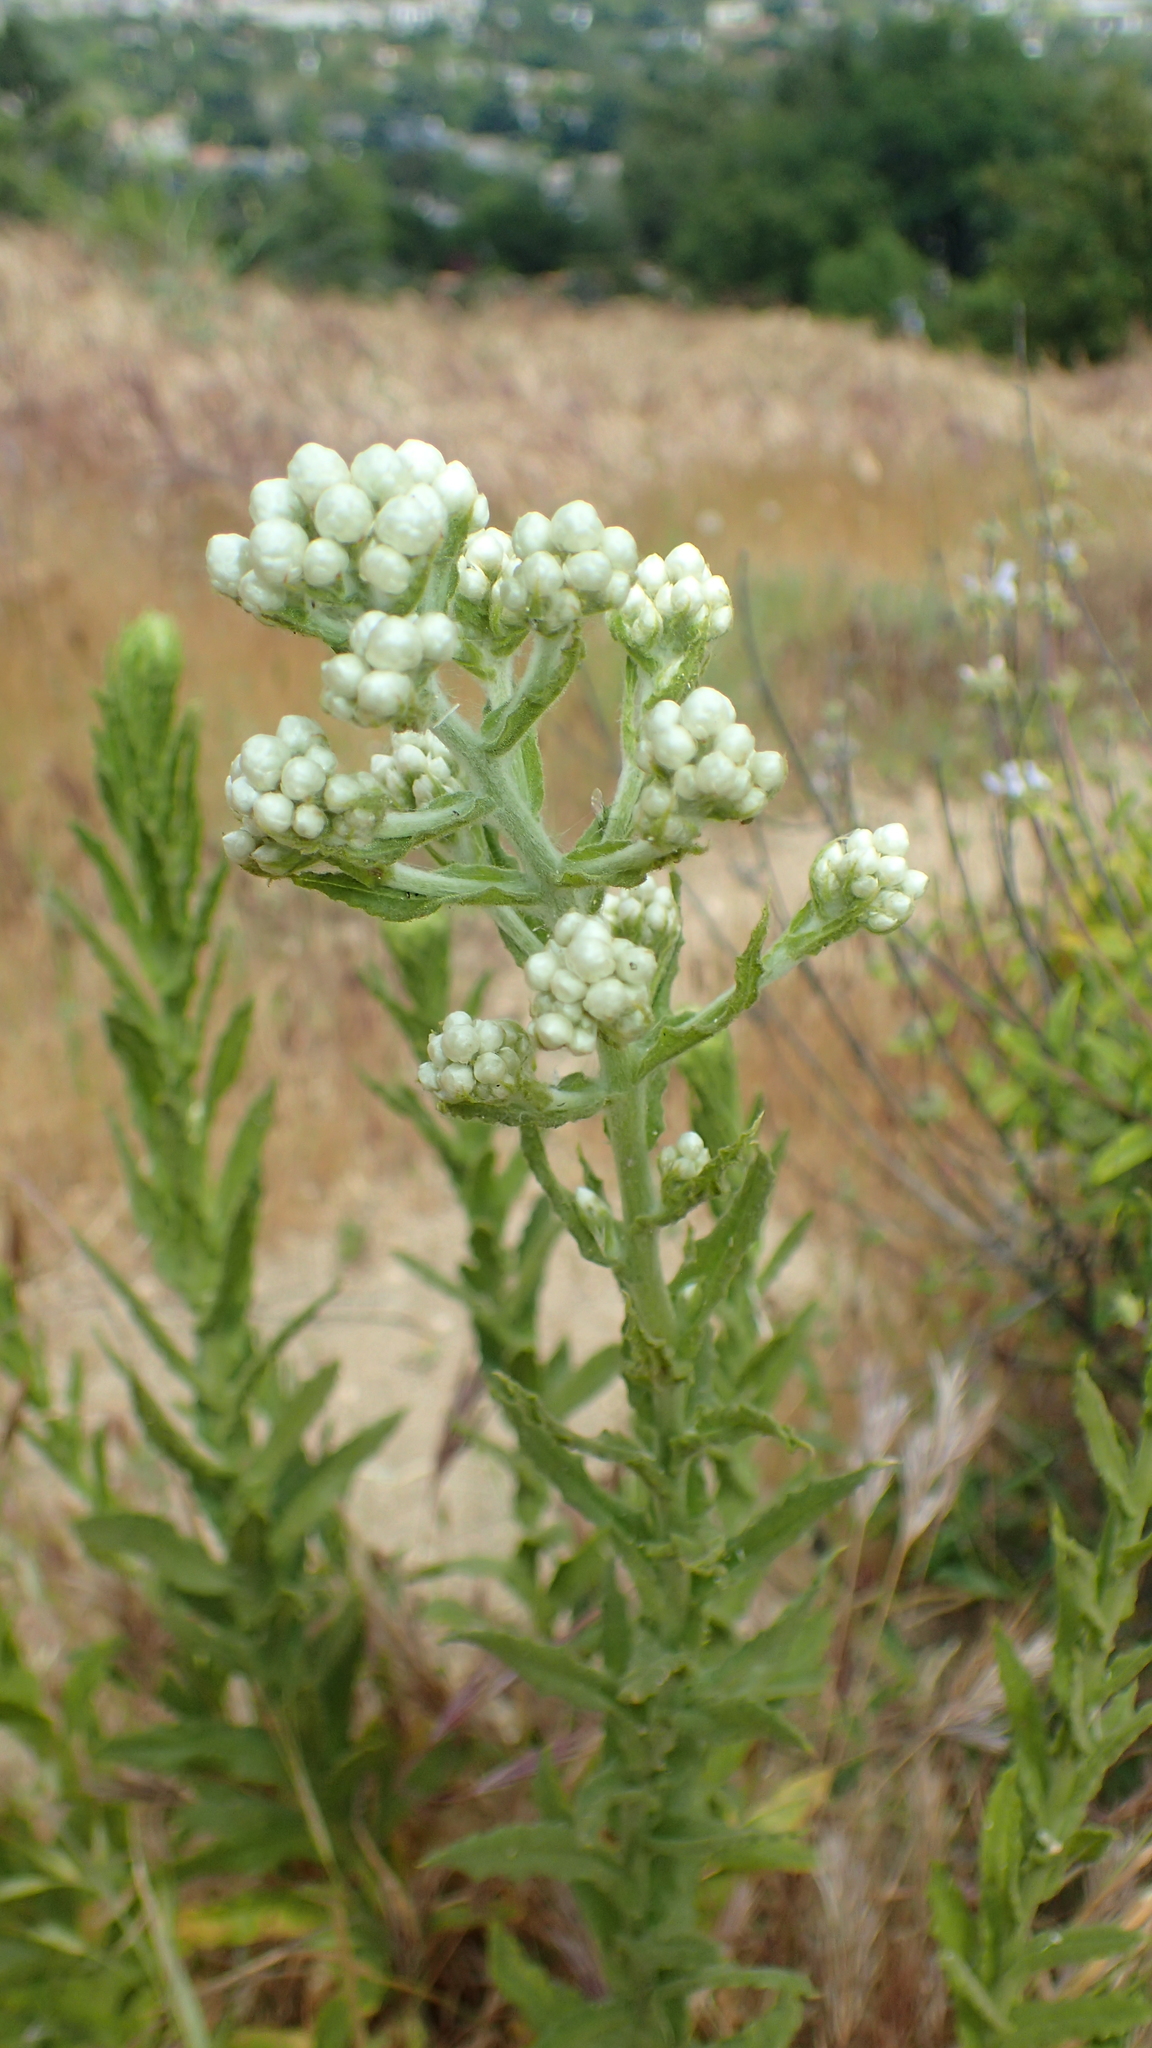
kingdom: Plantae
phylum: Tracheophyta
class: Magnoliopsida
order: Asterales
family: Asteraceae
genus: Pseudognaphalium
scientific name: Pseudognaphalium californicum
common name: California rabbit-tobacco
